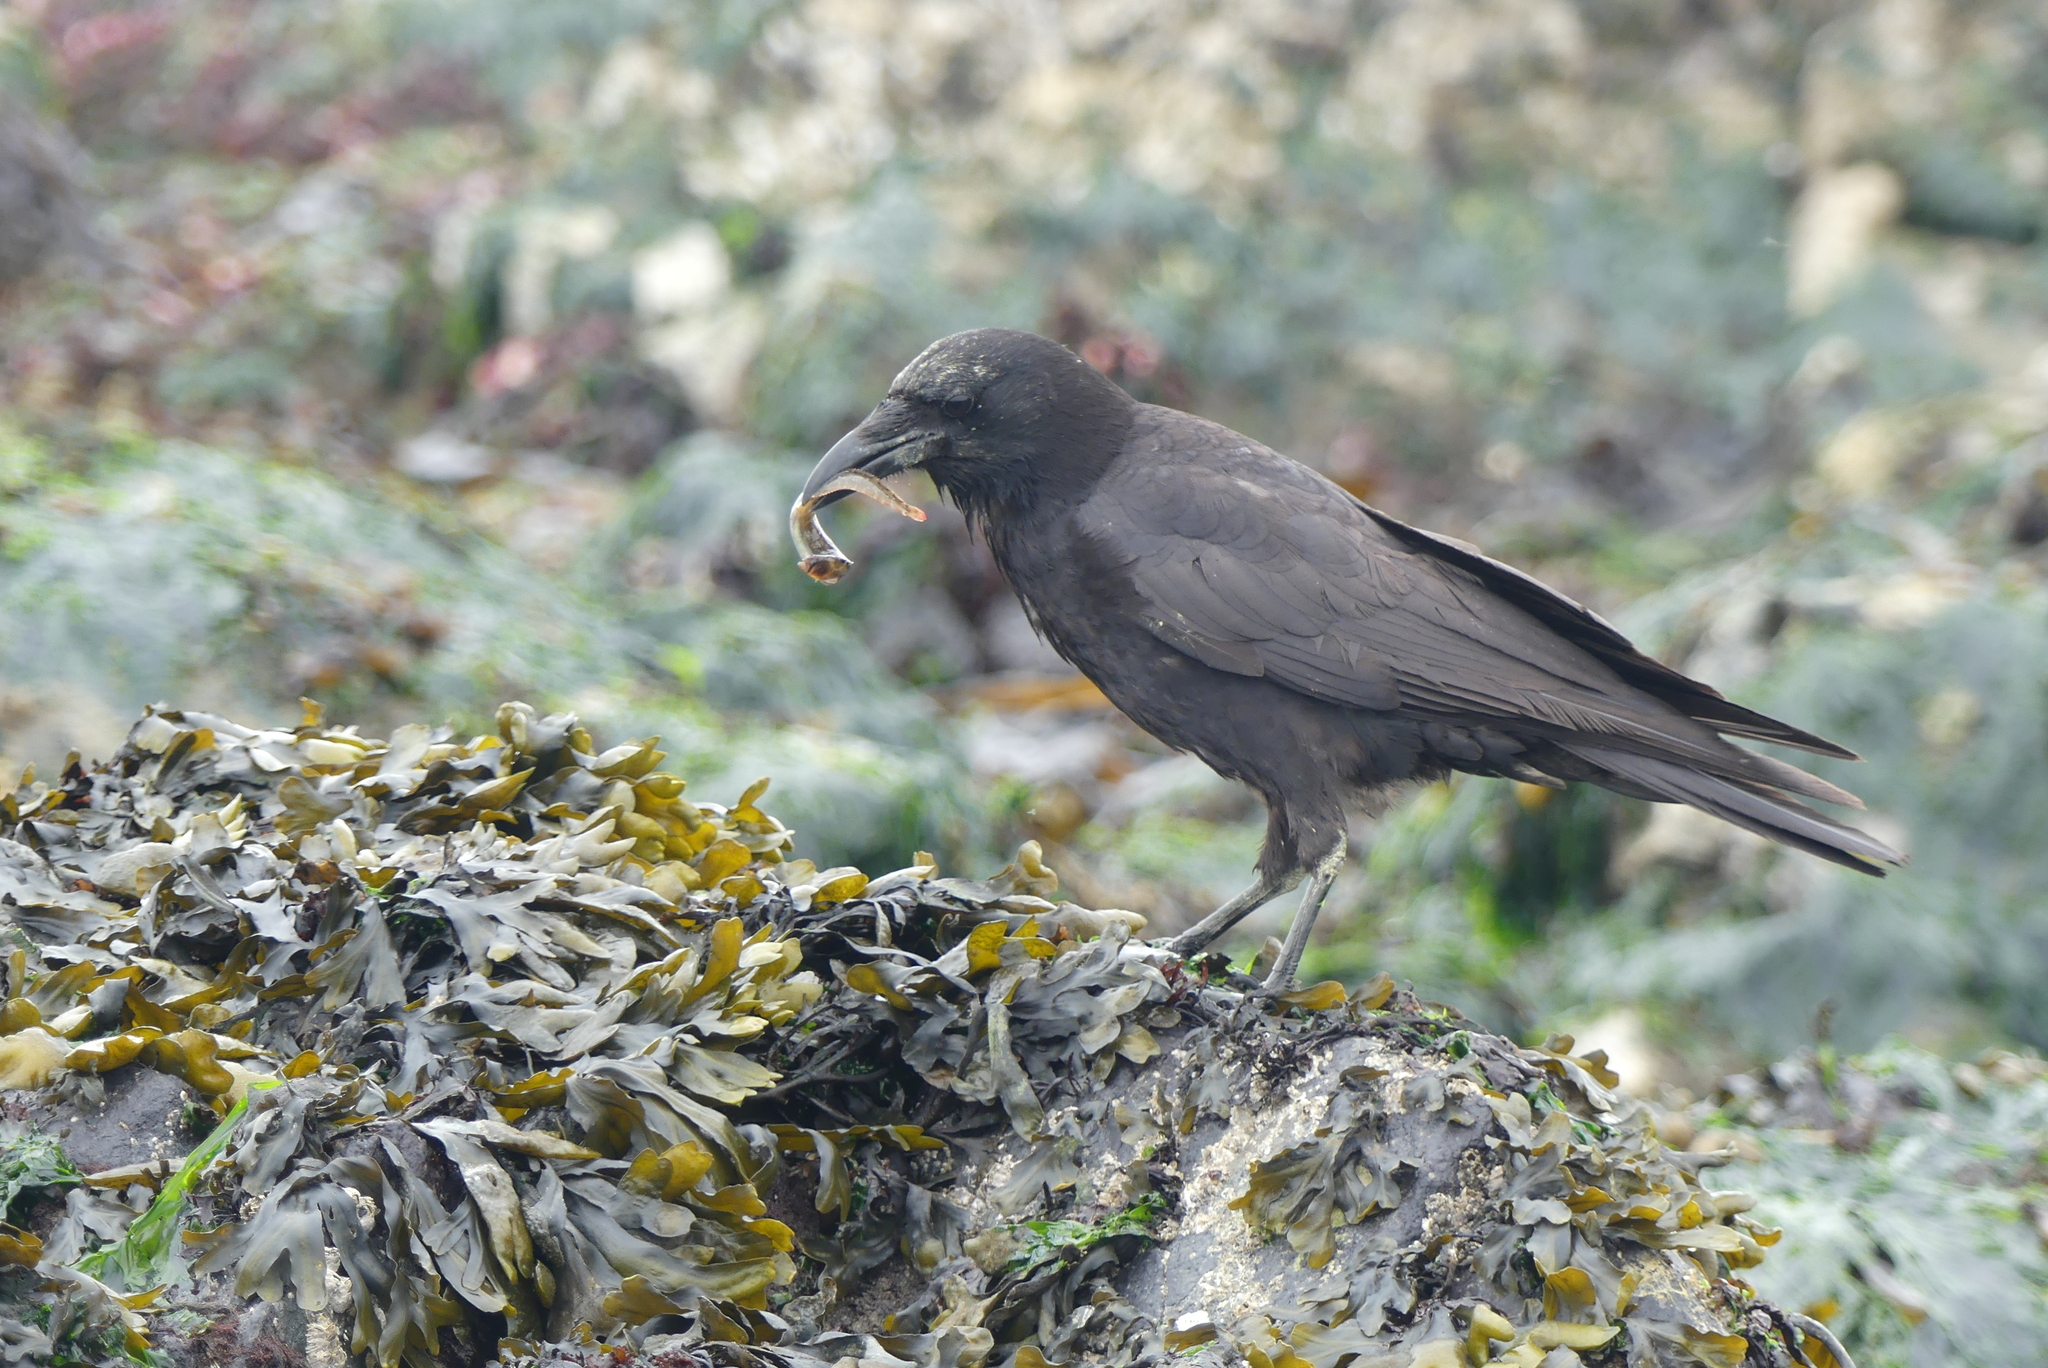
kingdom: Animalia
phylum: Chordata
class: Aves
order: Passeriformes
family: Corvidae
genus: Corvus
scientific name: Corvus brachyrhynchos
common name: American crow
